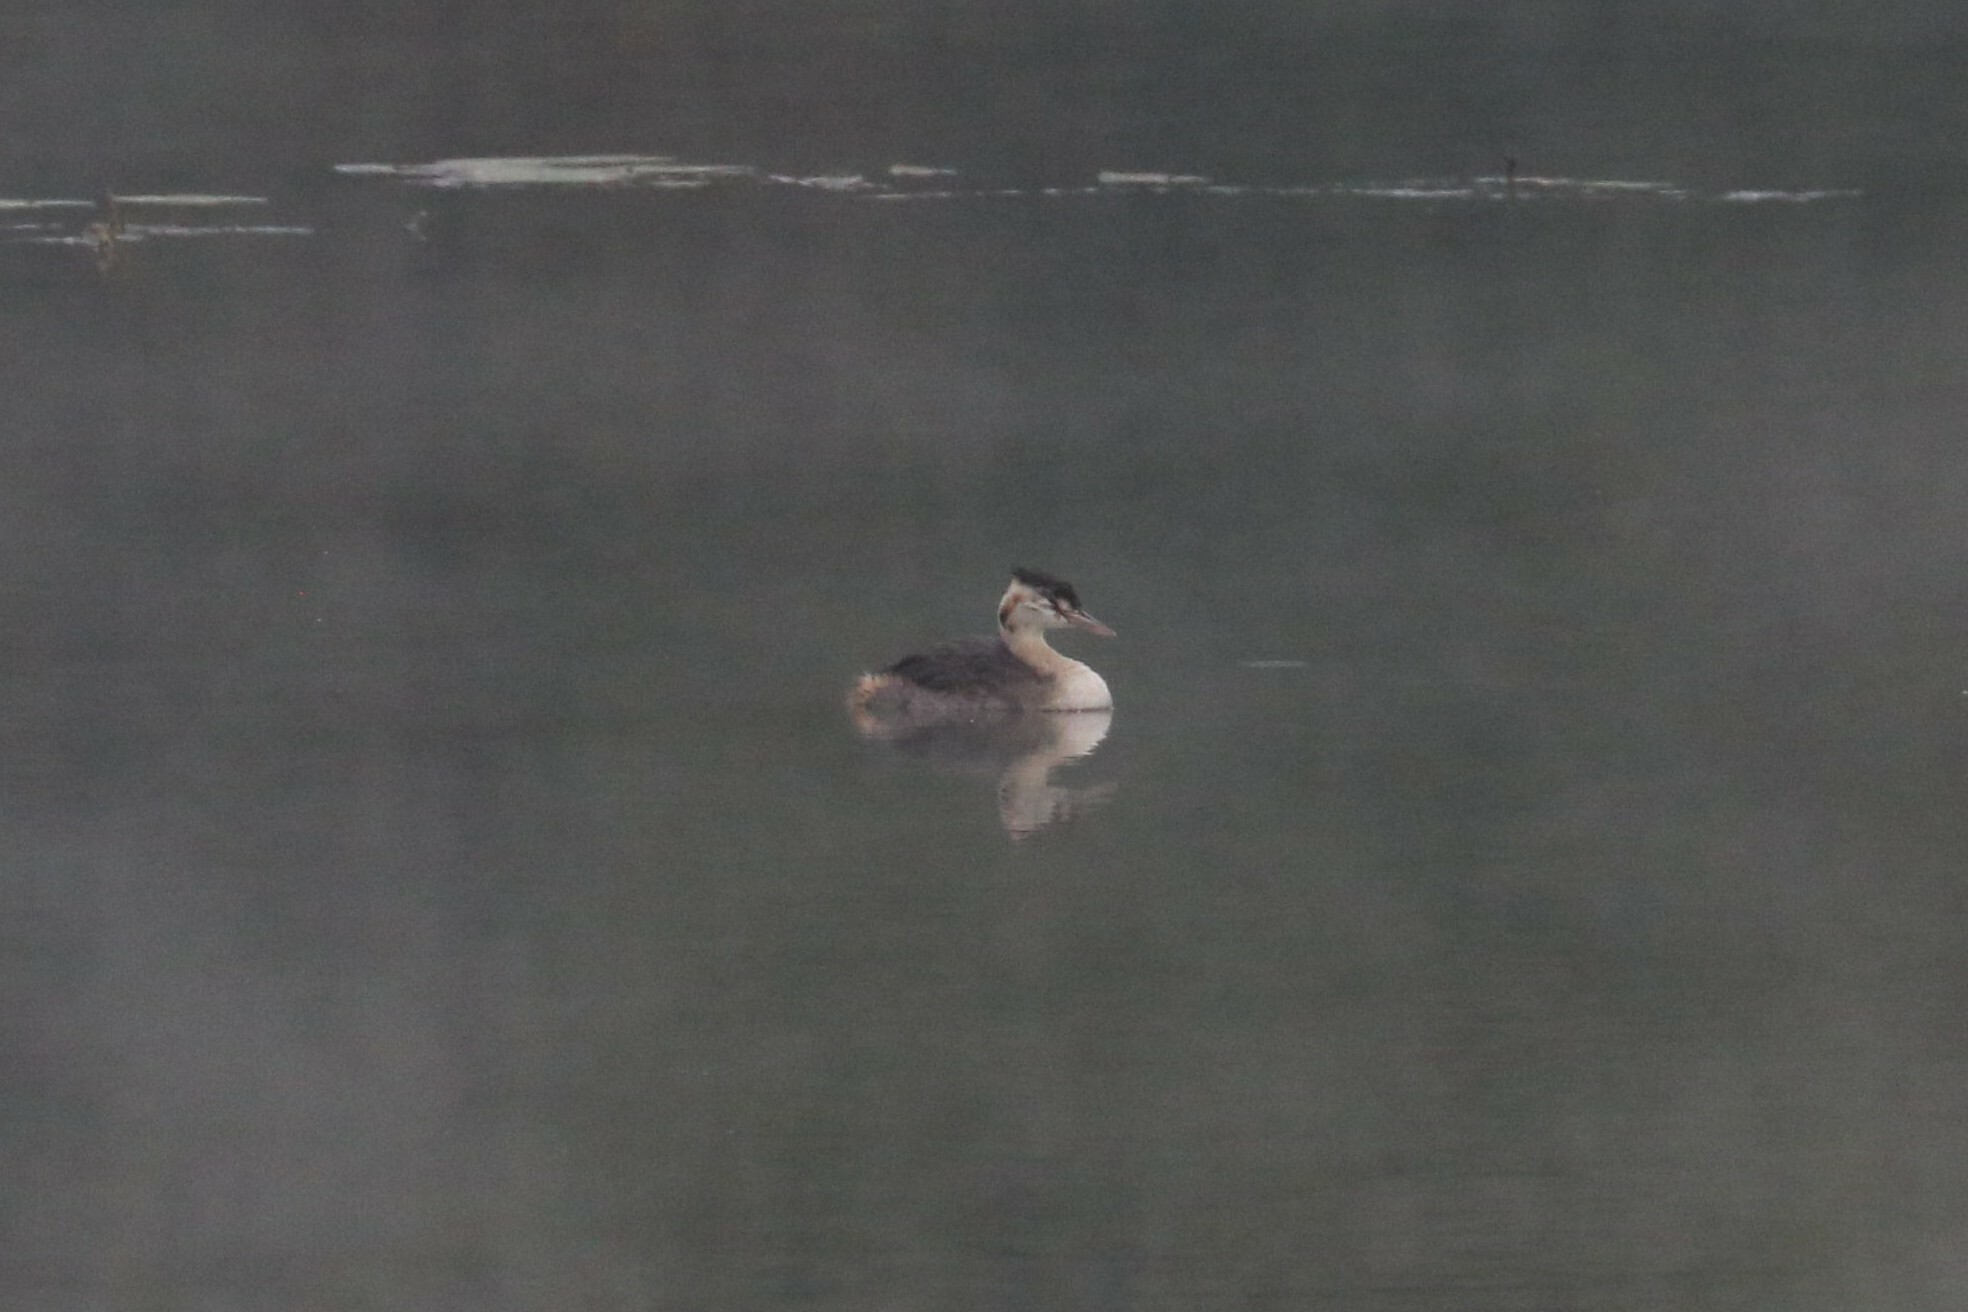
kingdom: Animalia
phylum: Chordata
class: Aves
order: Podicipediformes
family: Podicipedidae
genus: Podiceps
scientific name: Podiceps cristatus
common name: Great crested grebe
